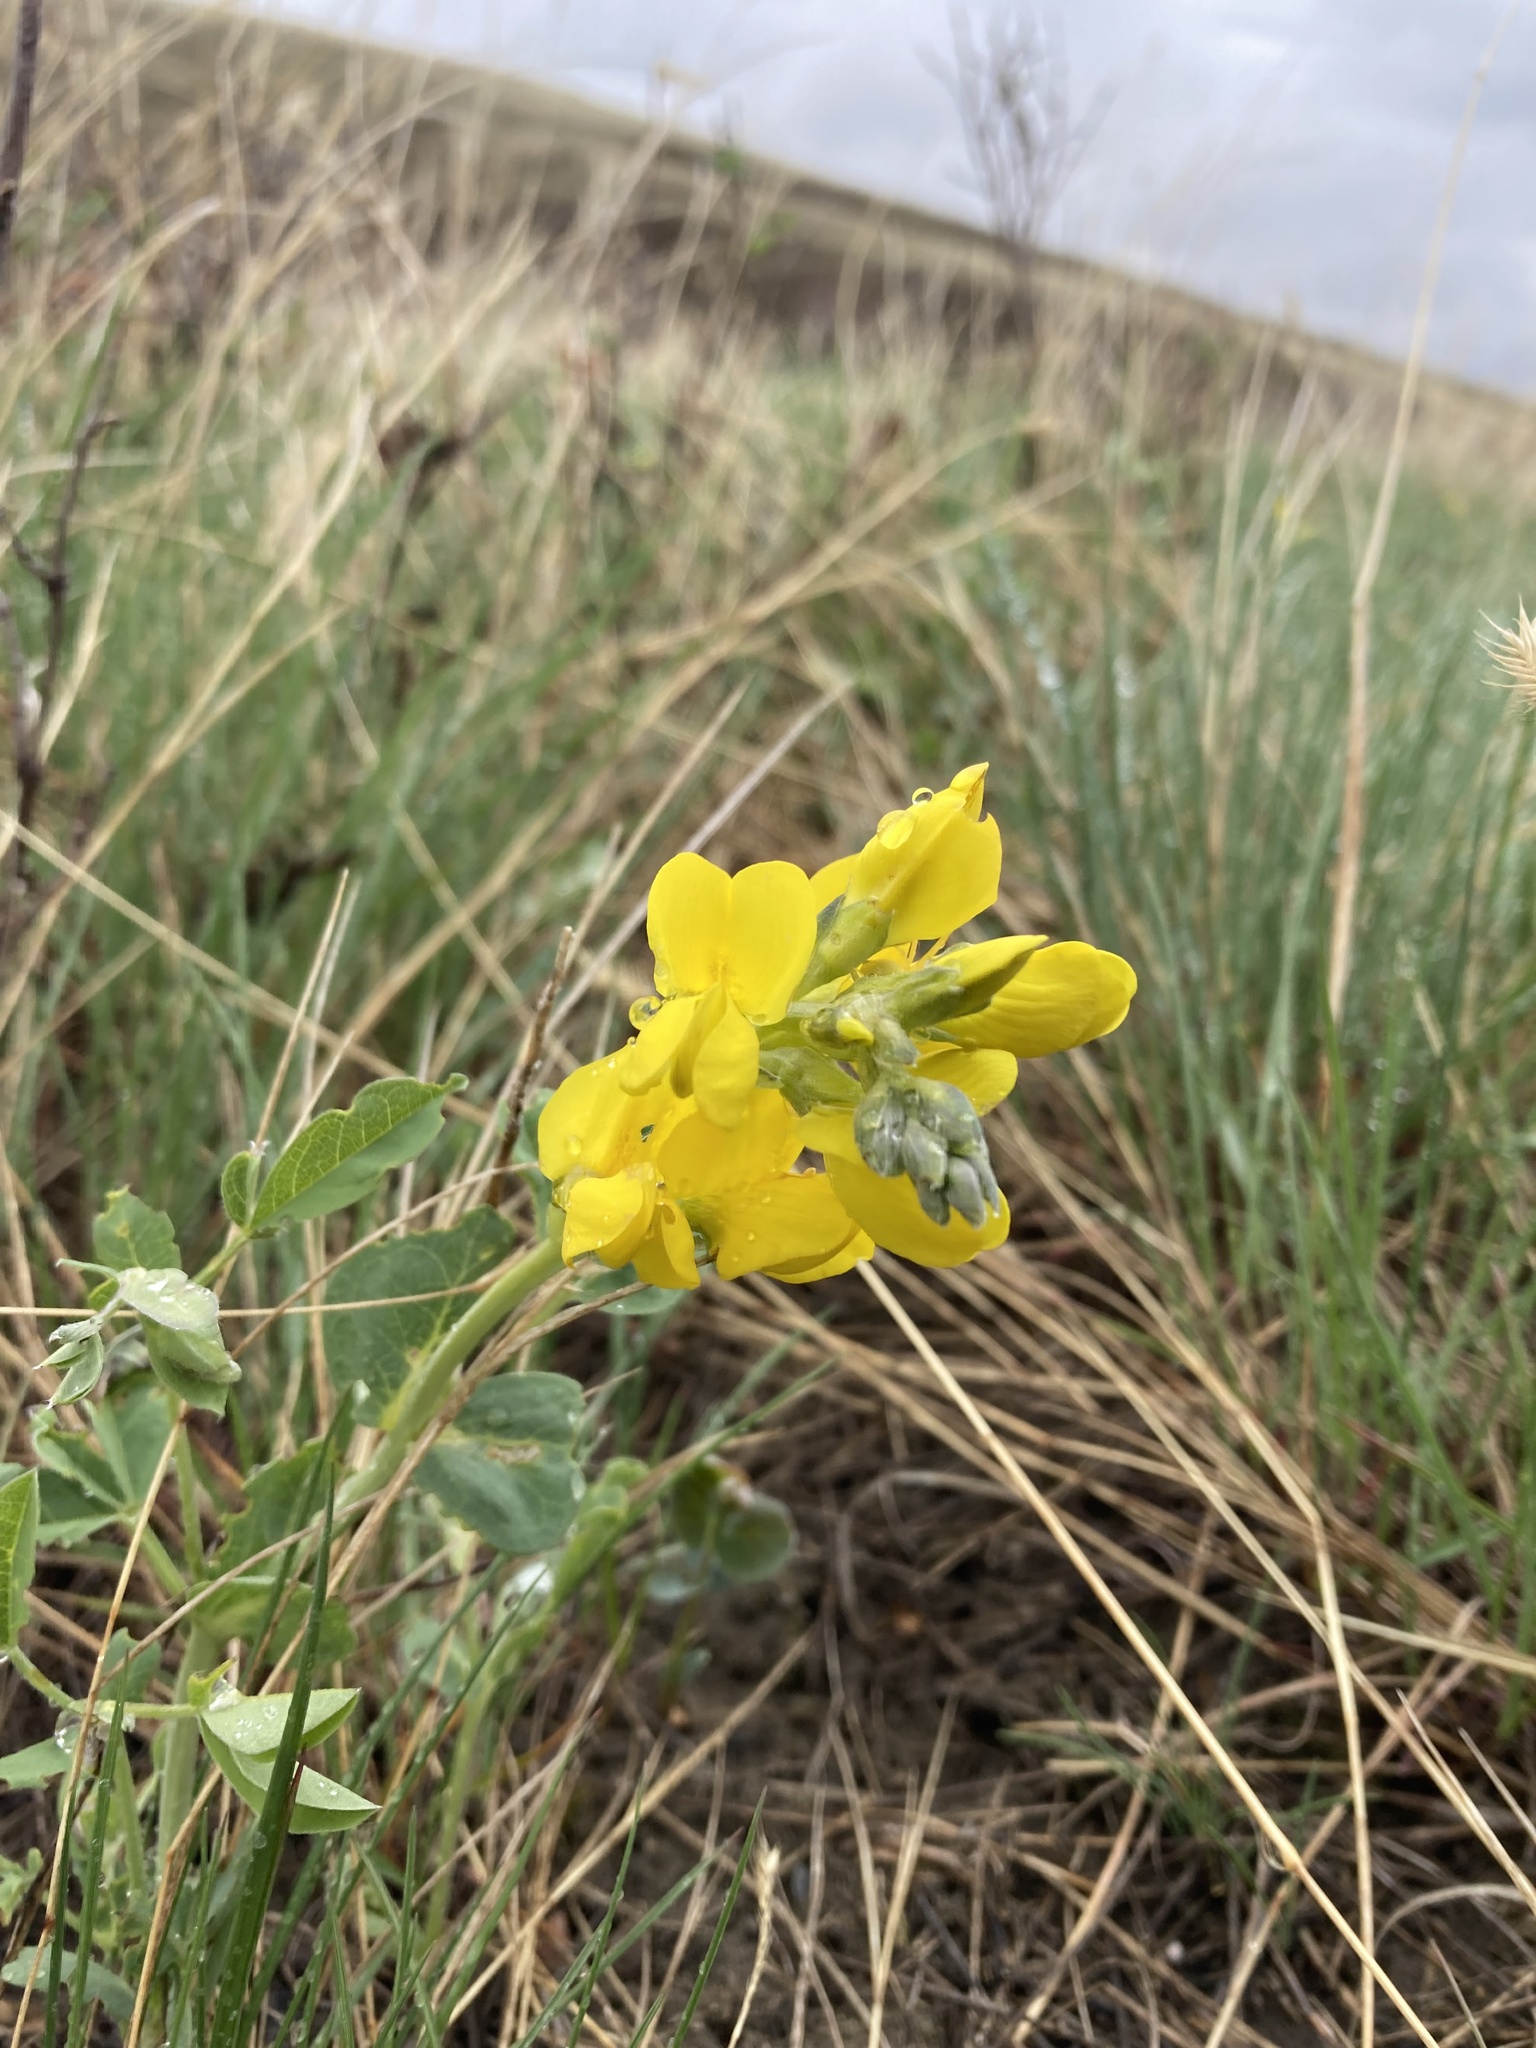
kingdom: Plantae
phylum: Tracheophyta
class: Magnoliopsida
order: Fabales
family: Fabaceae
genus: Thermopsis
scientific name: Thermopsis rhombifolia
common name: Circle-pod-pea
